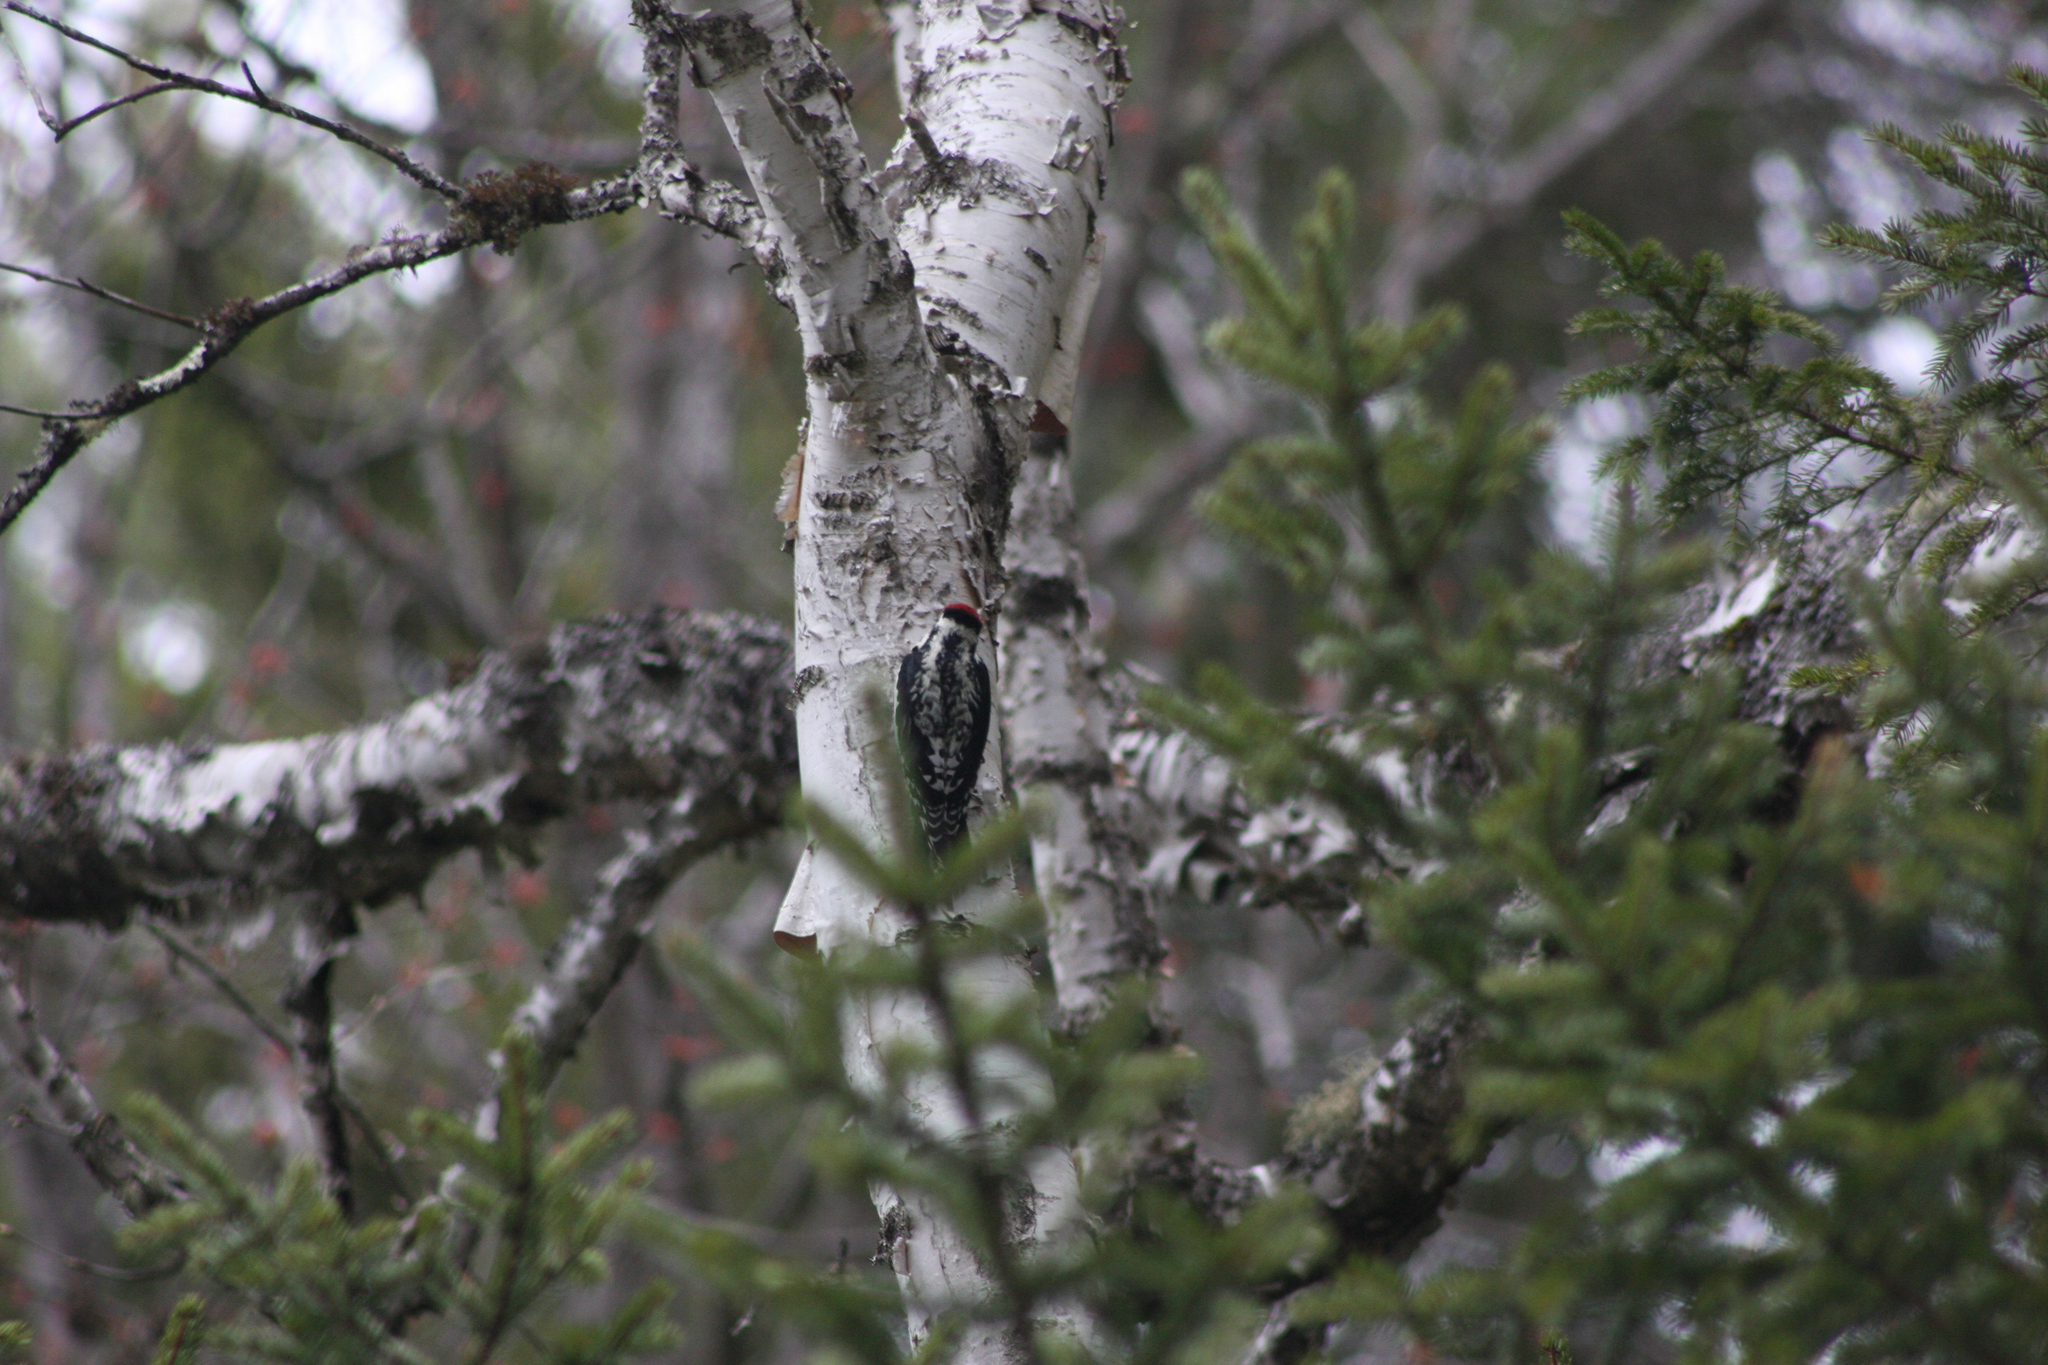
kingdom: Animalia
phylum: Chordata
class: Aves
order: Piciformes
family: Picidae
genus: Sphyrapicus
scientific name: Sphyrapicus varius
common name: Yellow-bellied sapsucker
